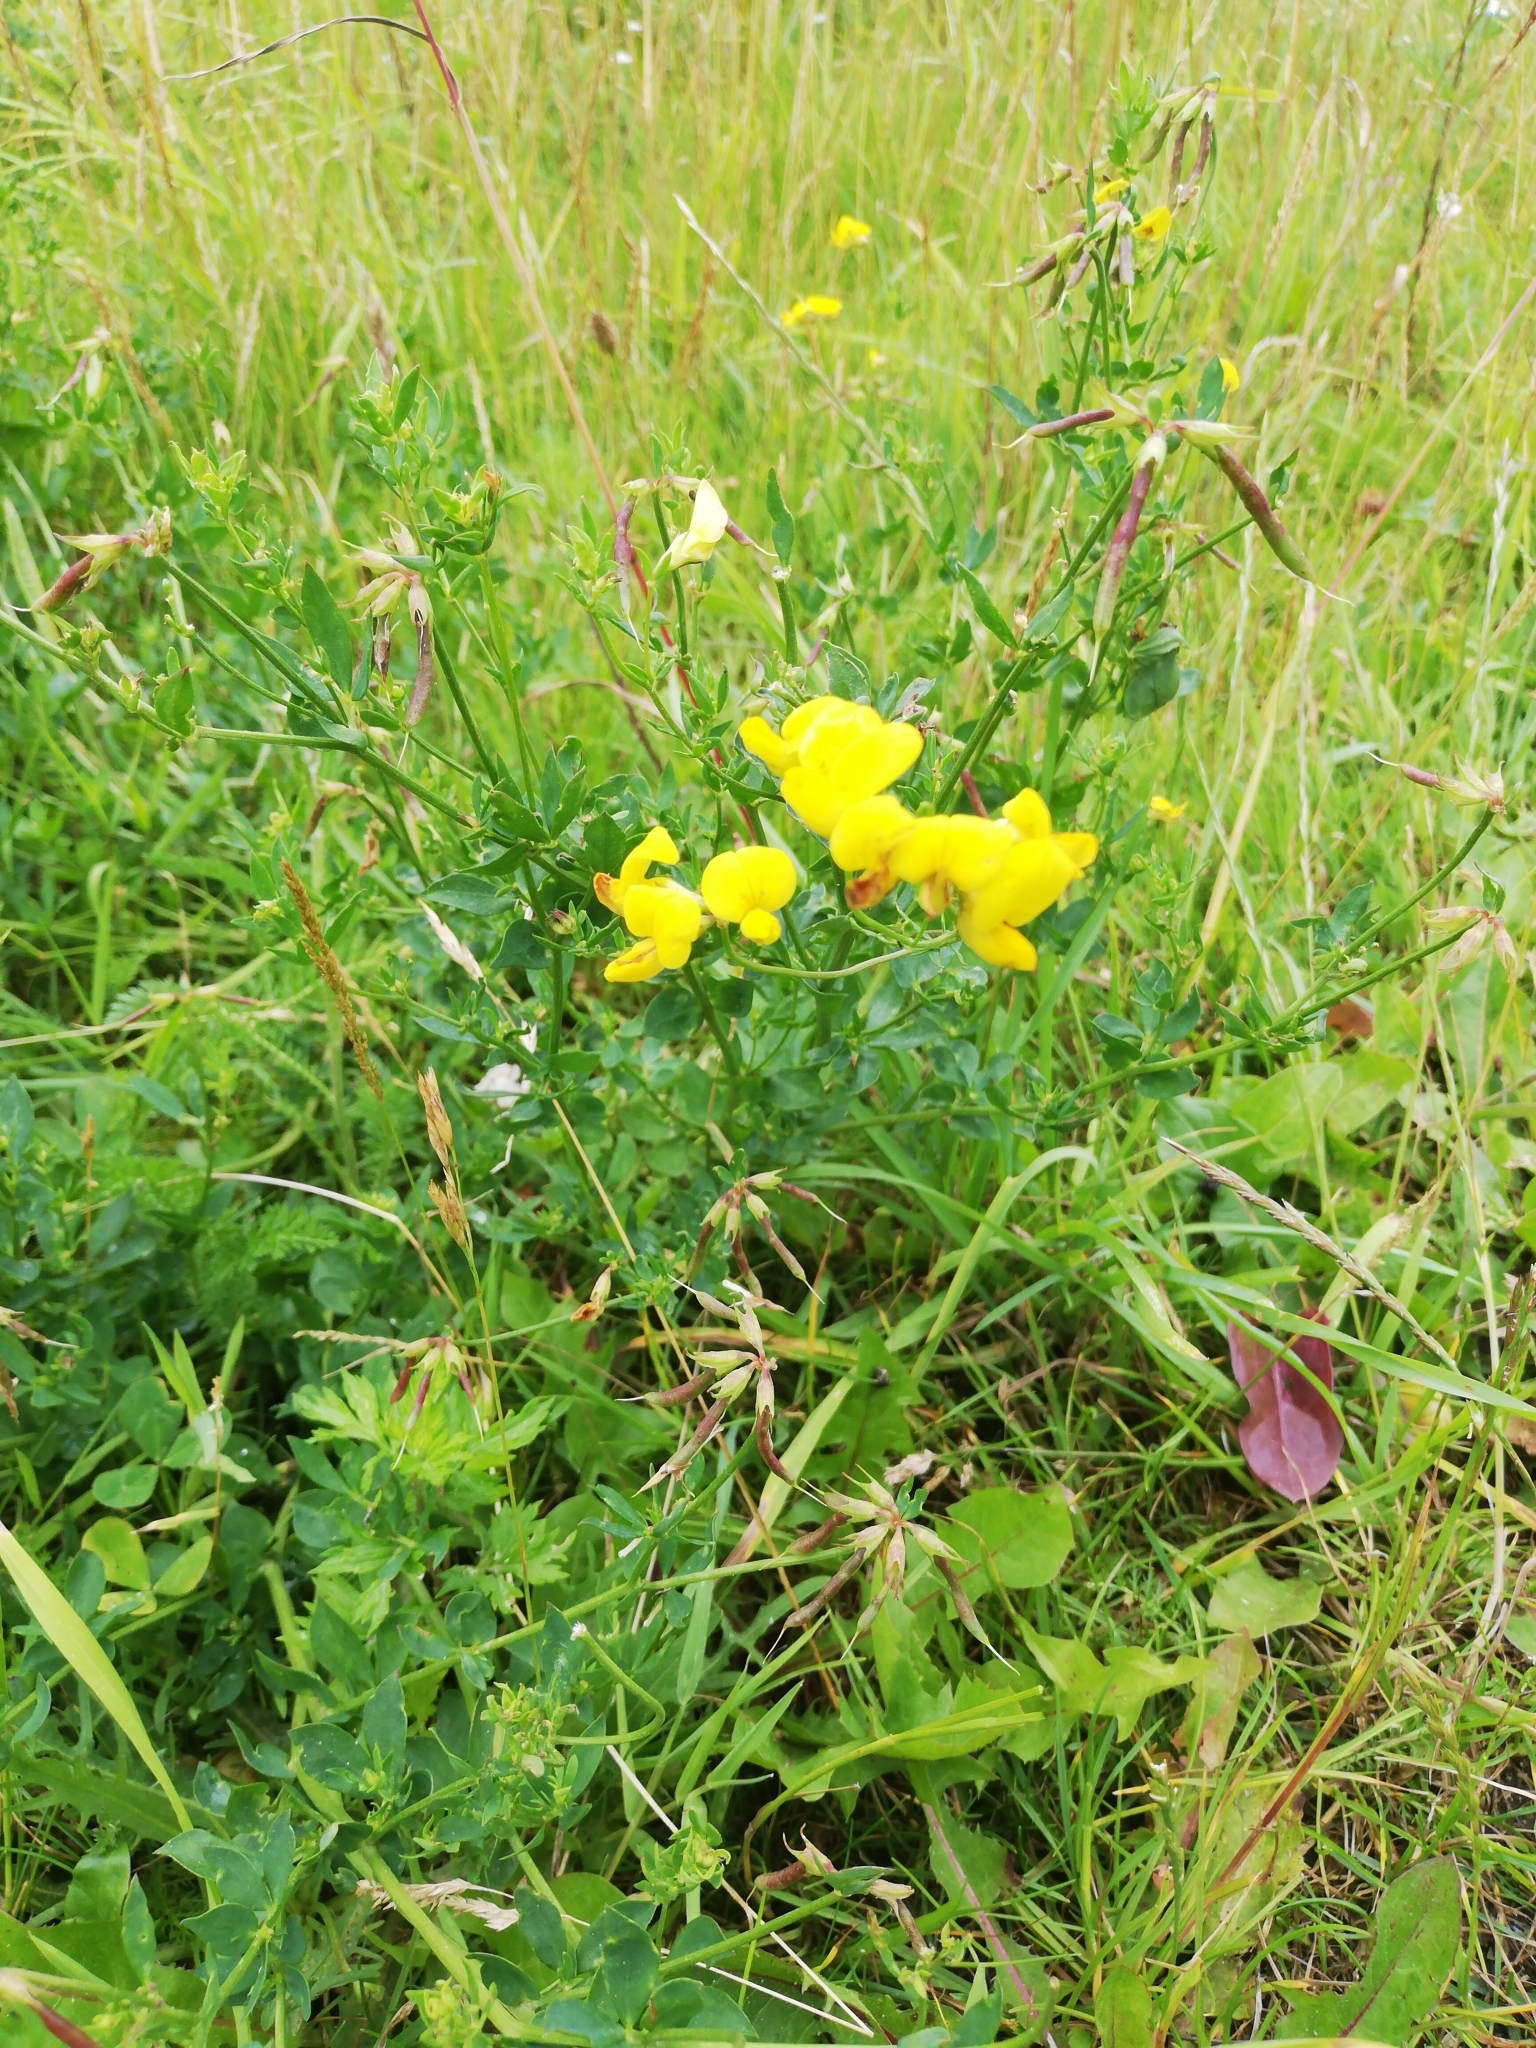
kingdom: Plantae
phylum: Tracheophyta
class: Magnoliopsida
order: Fabales
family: Fabaceae
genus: Lotus
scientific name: Lotus corniculatus
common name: Common bird's-foot-trefoil
